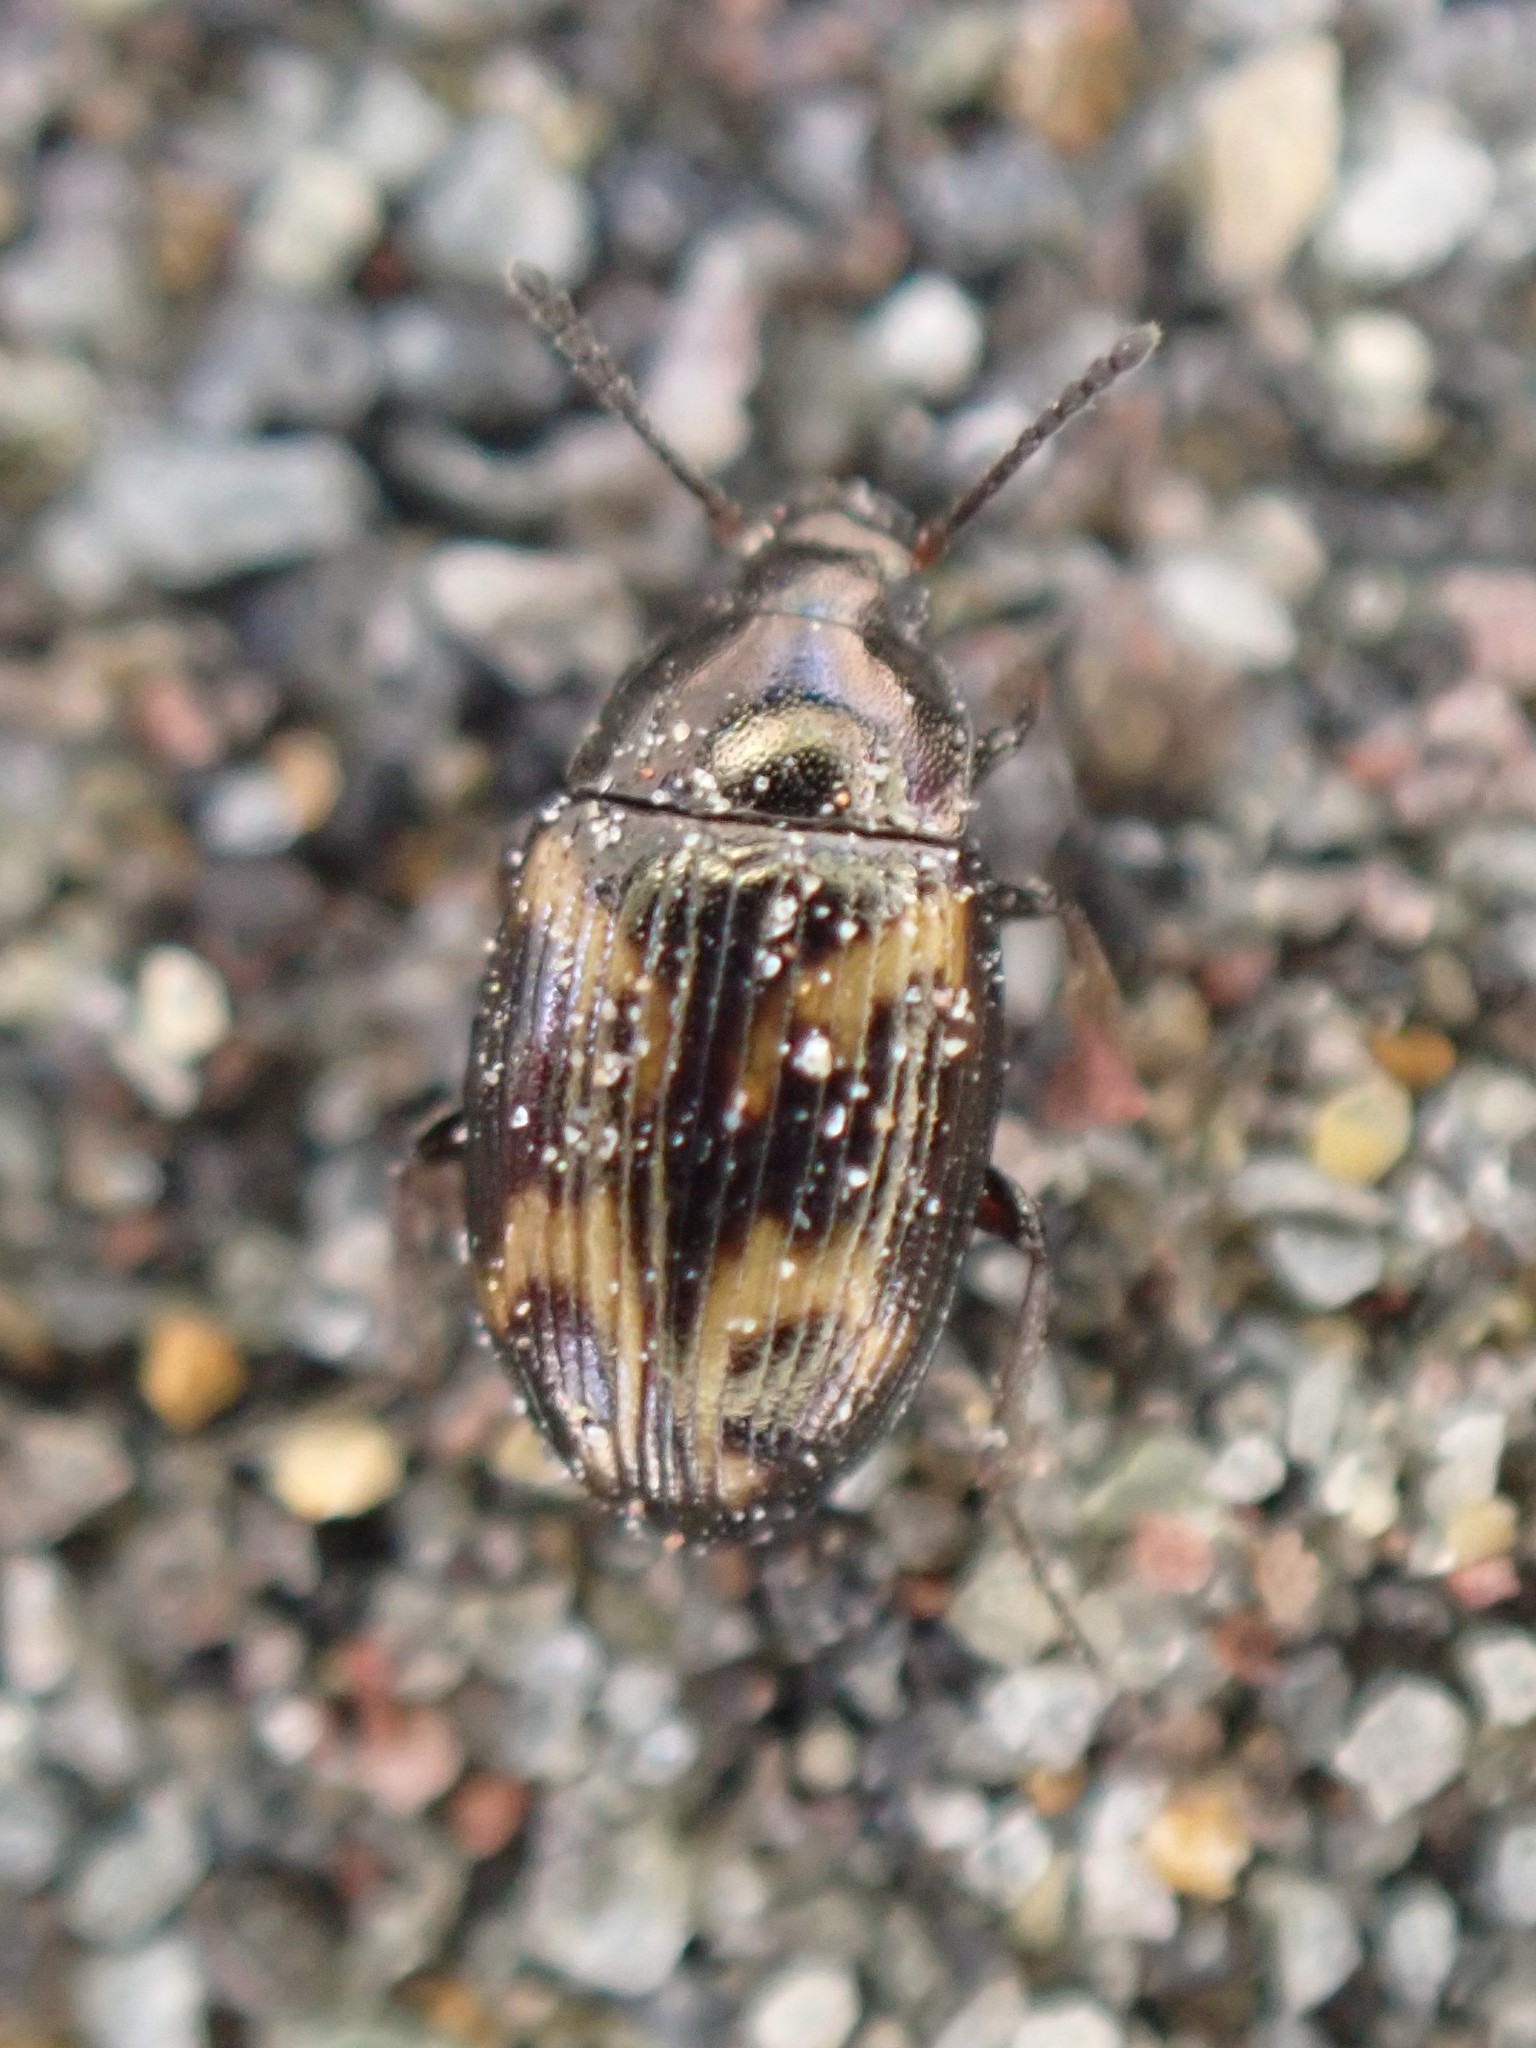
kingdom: Animalia
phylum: Arthropoda
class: Insecta
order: Coleoptera
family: Tenebrionidae
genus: Phaleromela
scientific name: Phaleromela variegata
